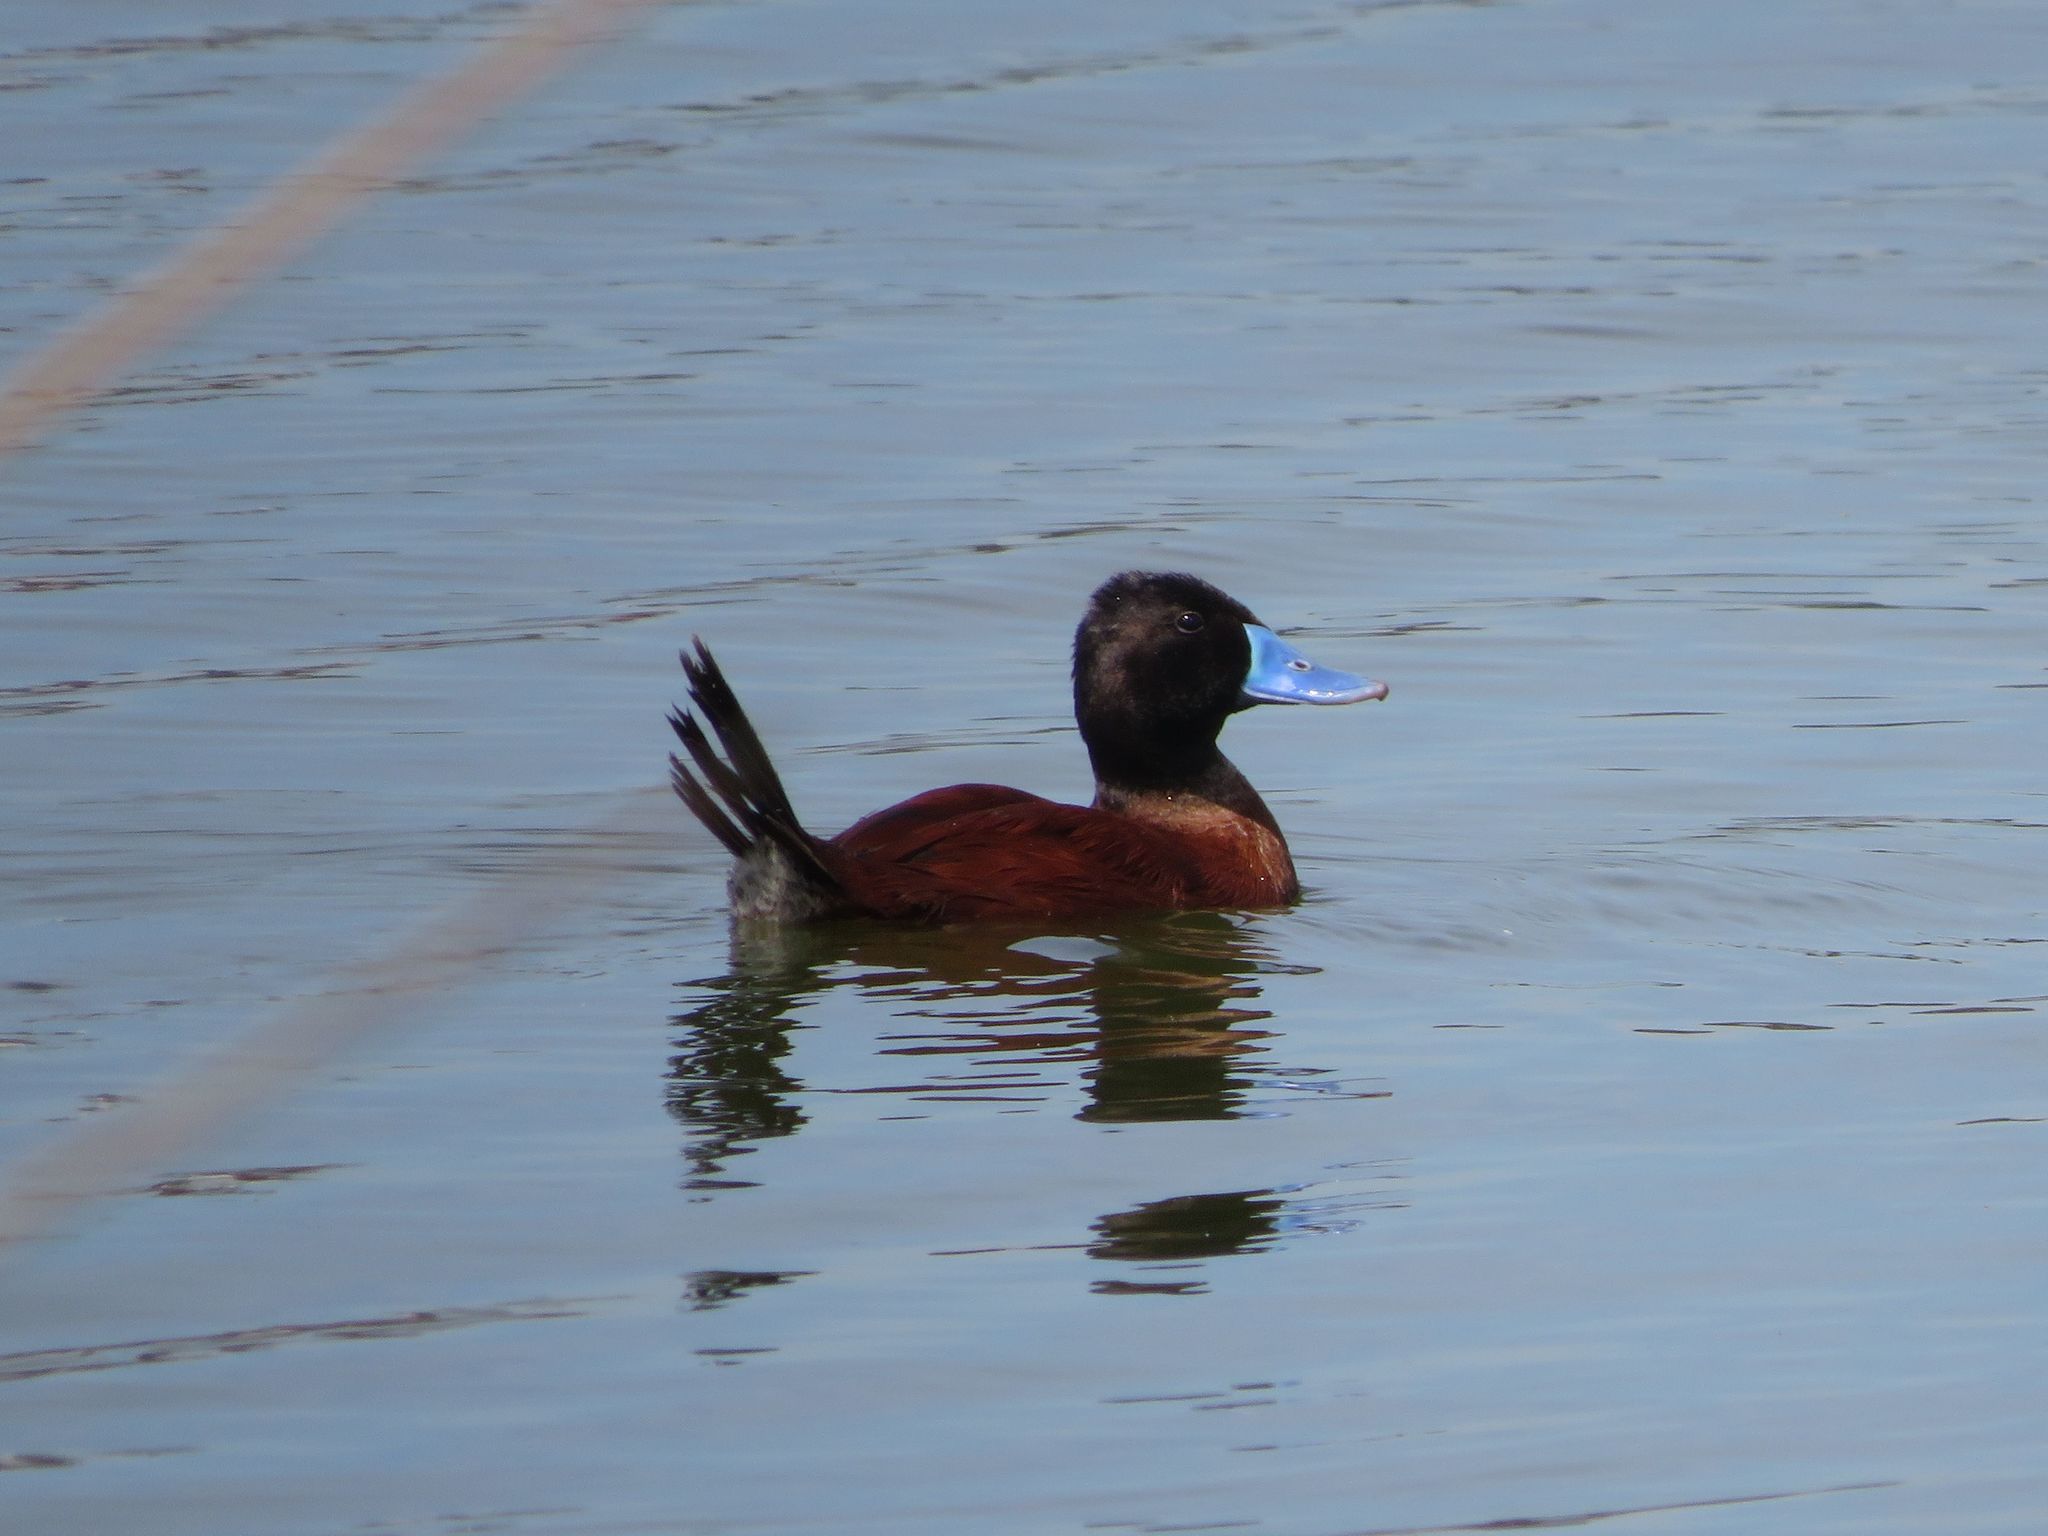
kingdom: Animalia
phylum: Chordata
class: Aves
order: Anseriformes
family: Anatidae
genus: Oxyura
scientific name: Oxyura vittata
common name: Lake duck
